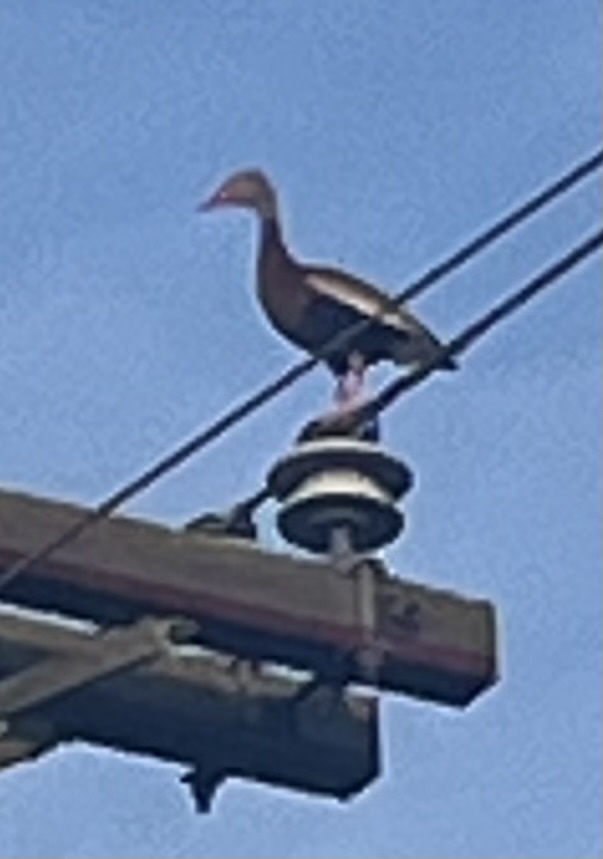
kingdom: Animalia
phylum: Chordata
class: Aves
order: Anseriformes
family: Anatidae
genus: Dendrocygna
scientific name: Dendrocygna autumnalis
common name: Black-bellied whistling duck
